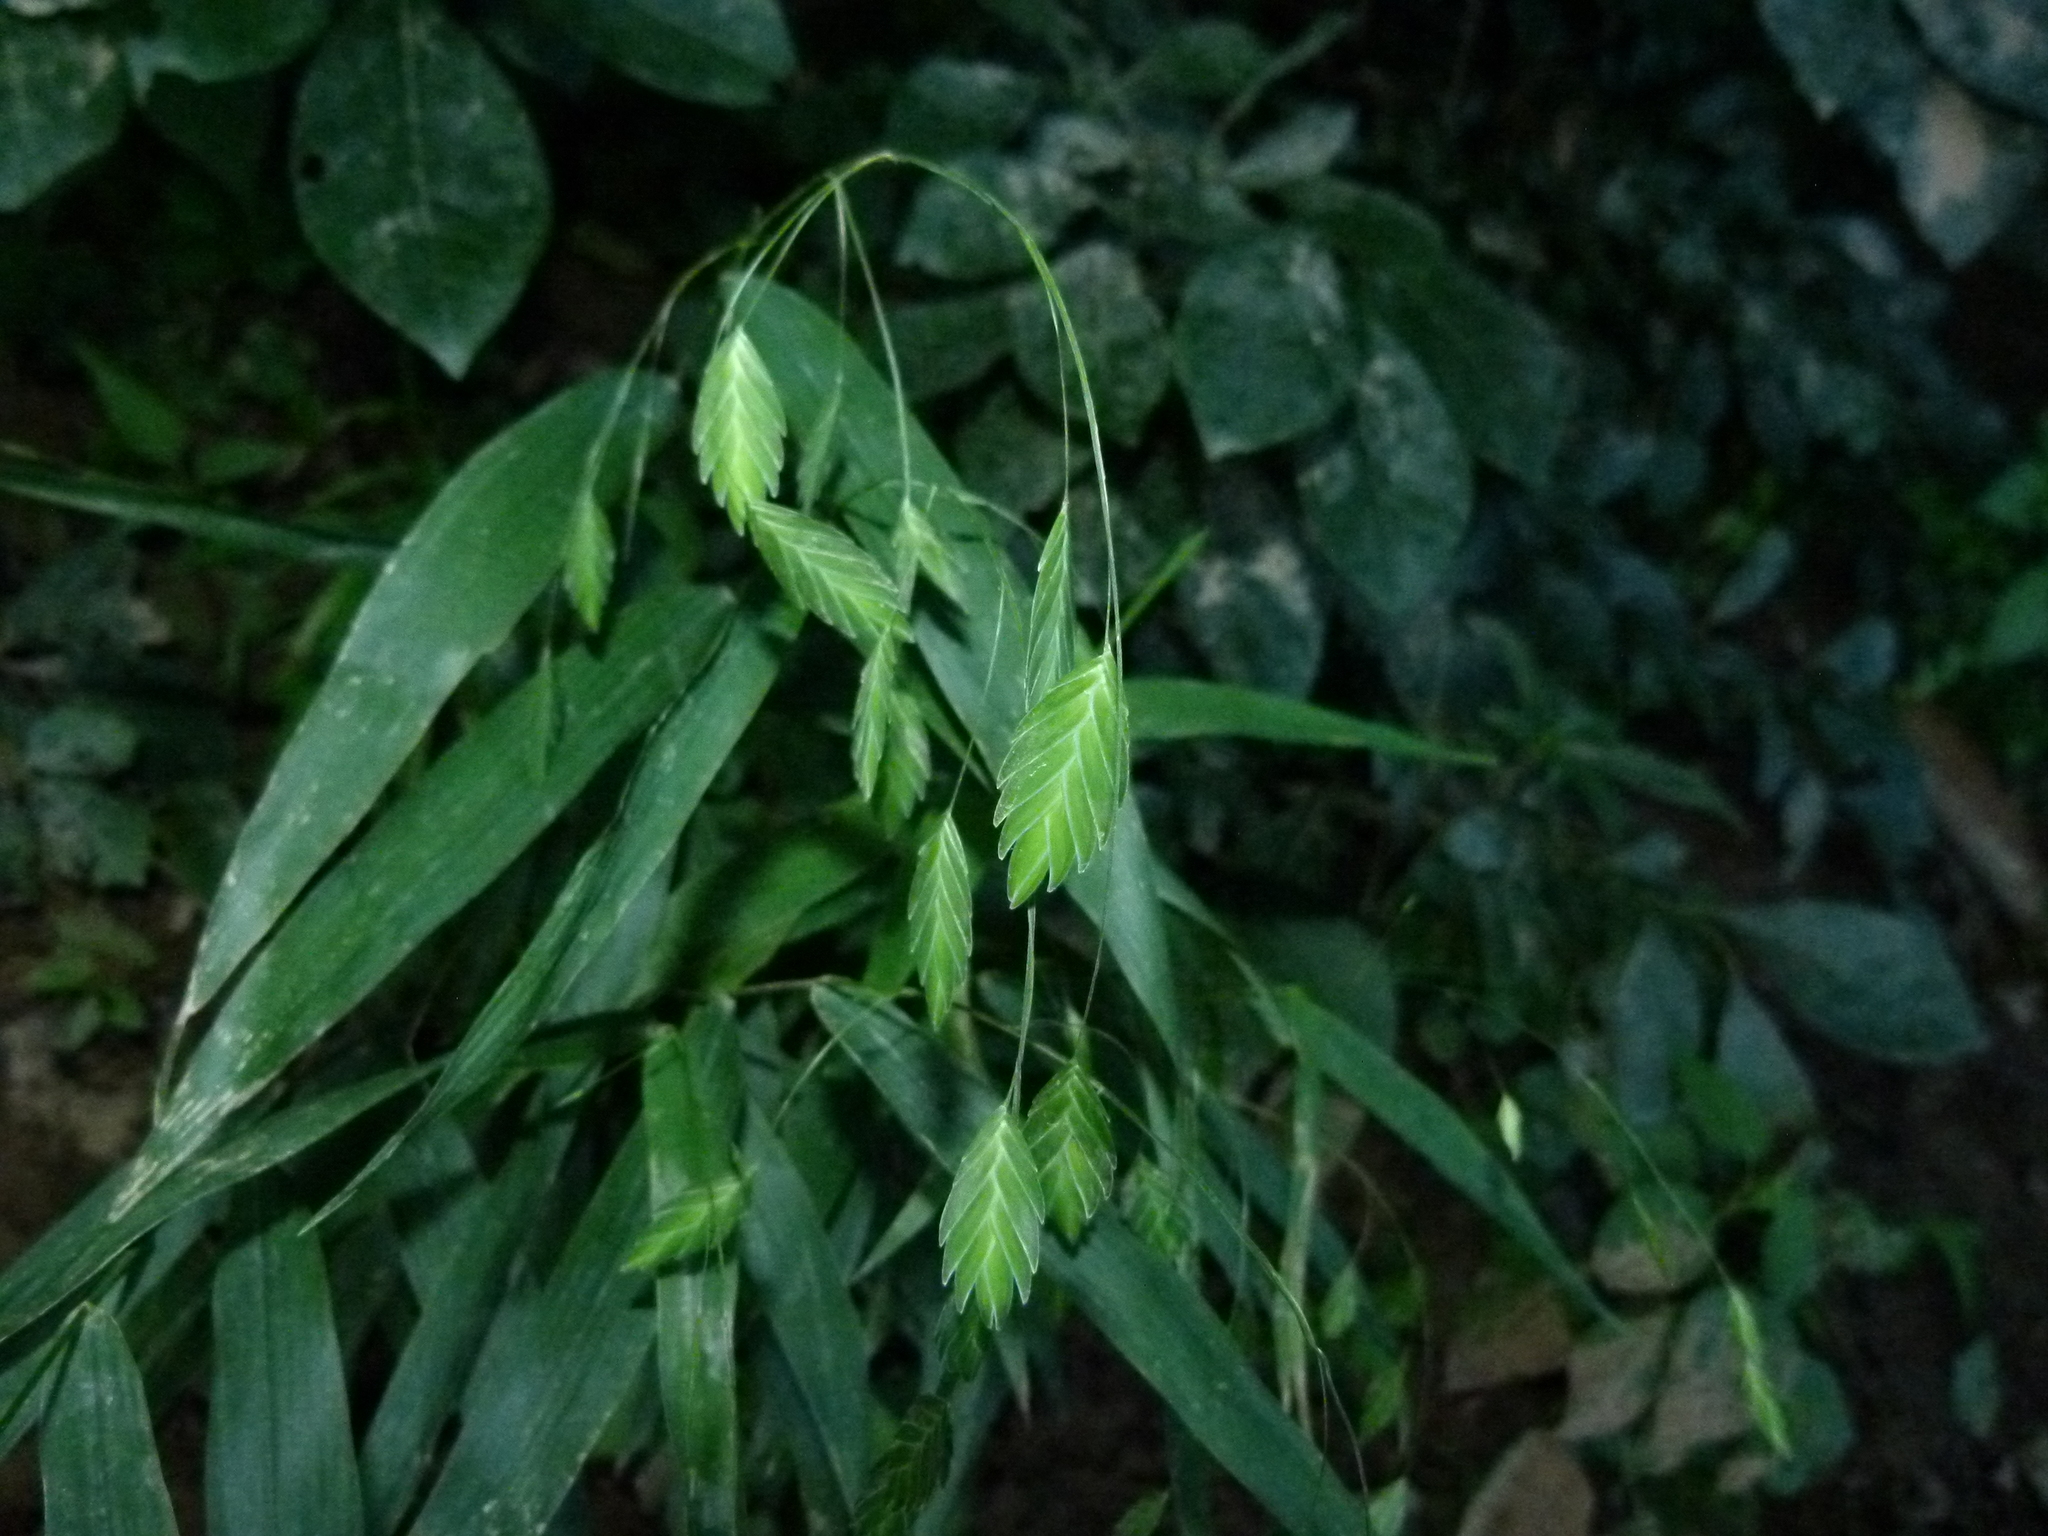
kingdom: Plantae
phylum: Tracheophyta
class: Liliopsida
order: Poales
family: Poaceae
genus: Chasmanthium
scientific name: Chasmanthium latifolium
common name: Broad-leaved chasmanthium
